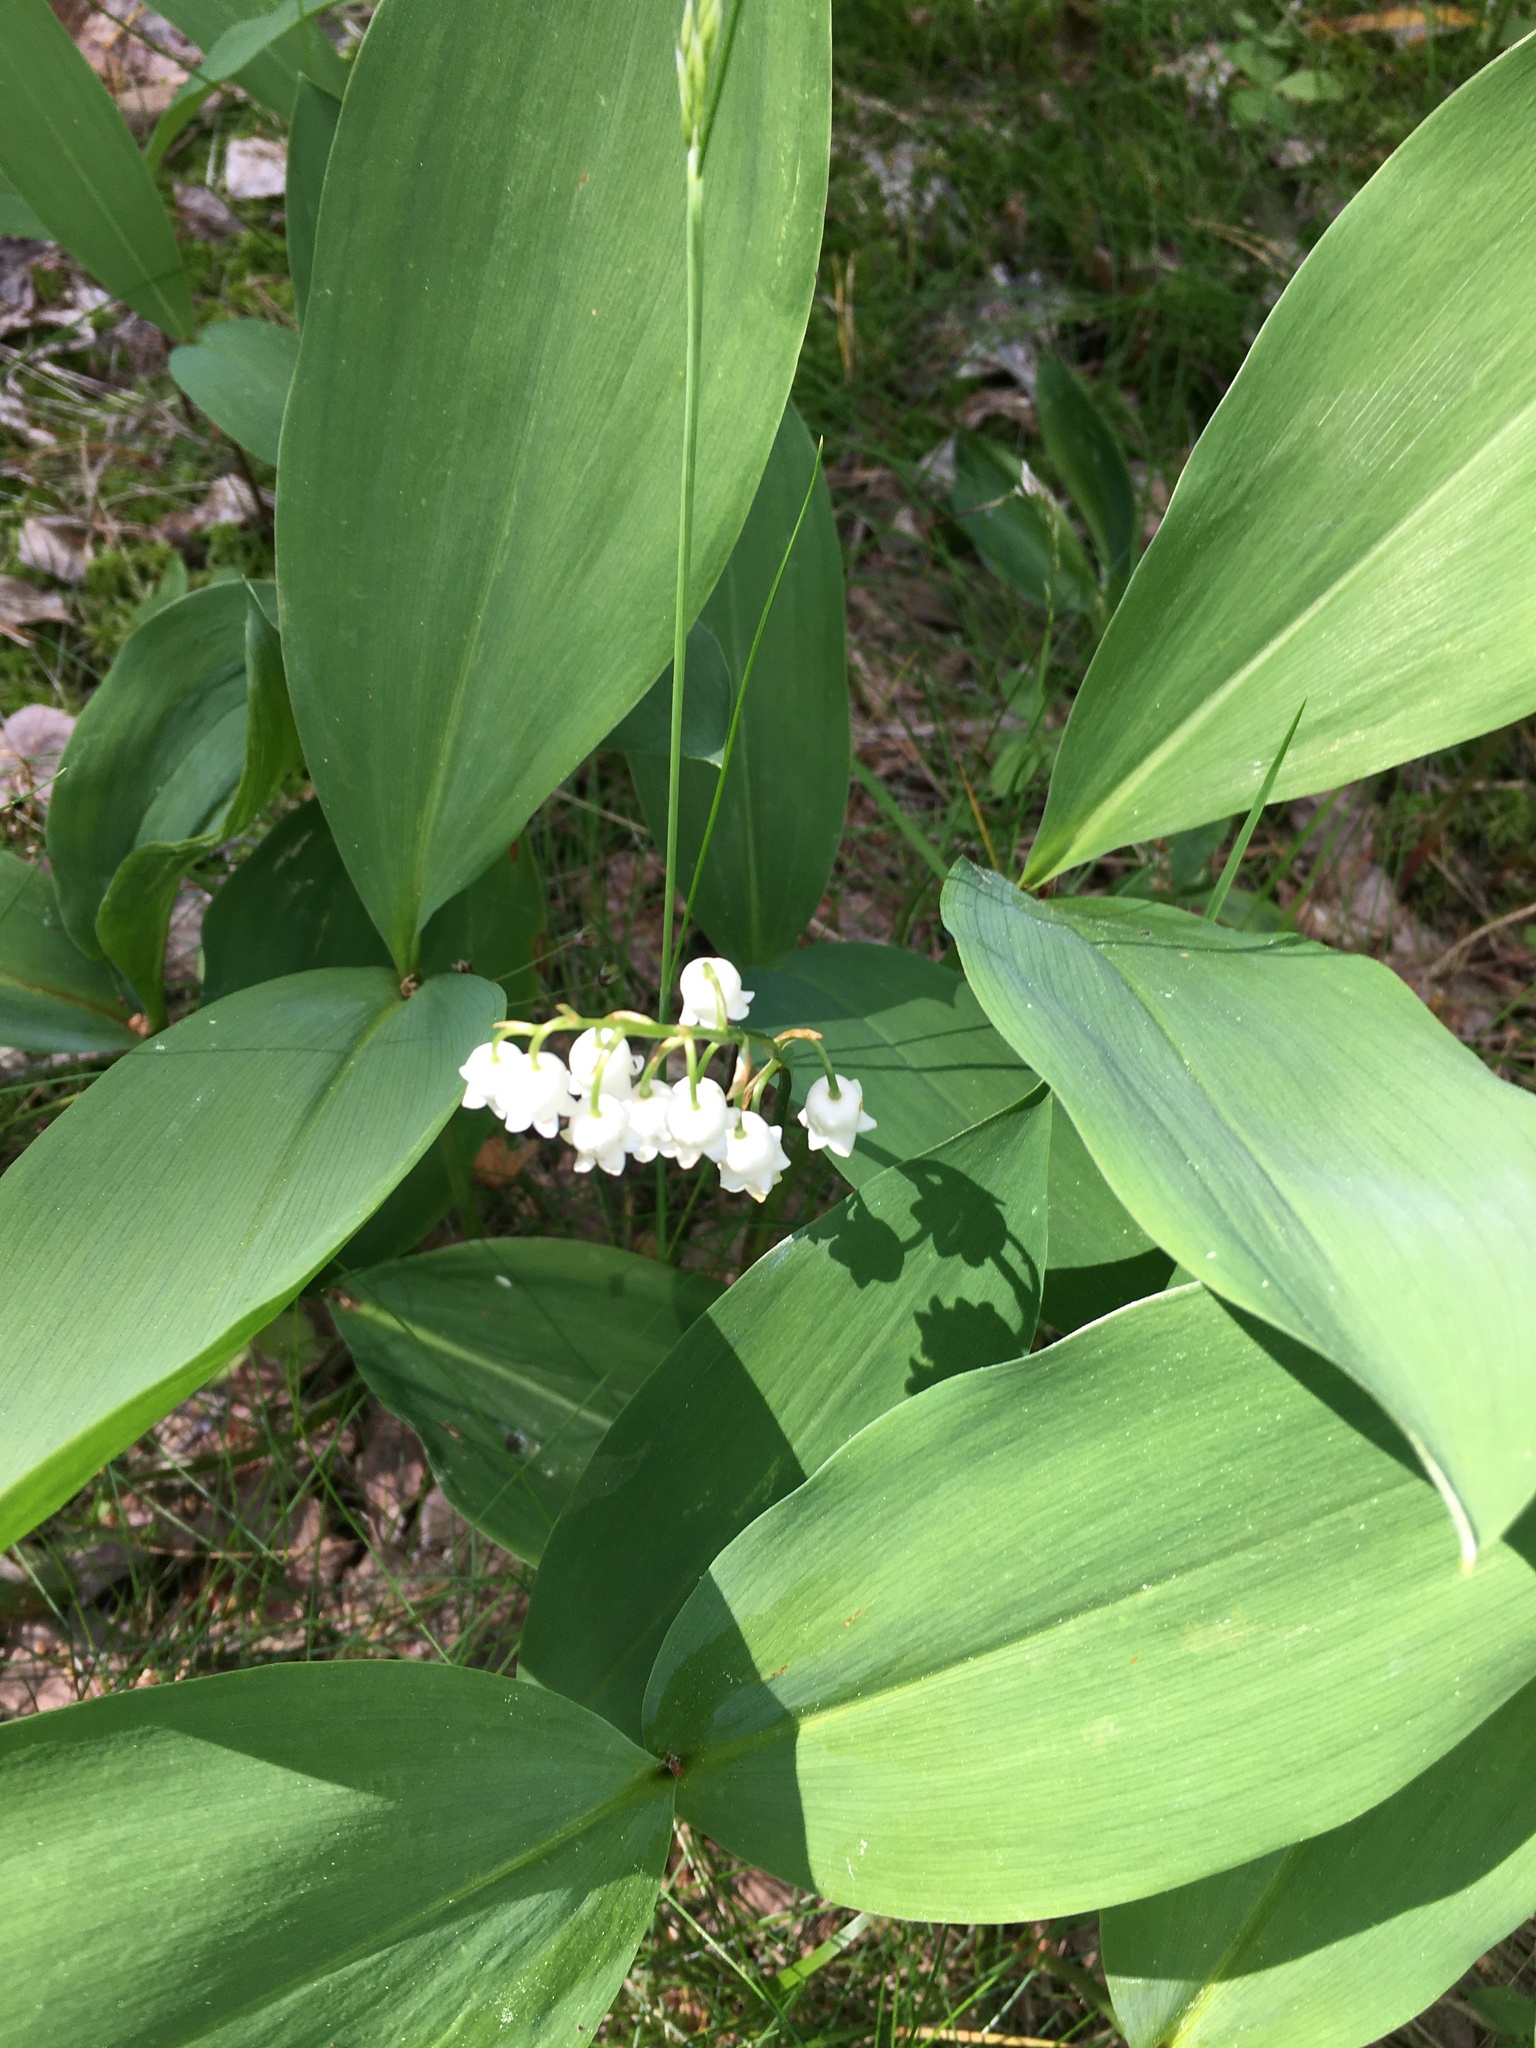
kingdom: Plantae
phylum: Tracheophyta
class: Liliopsida
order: Asparagales
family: Asparagaceae
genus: Convallaria
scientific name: Convallaria majalis
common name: Lily-of-the-valley
